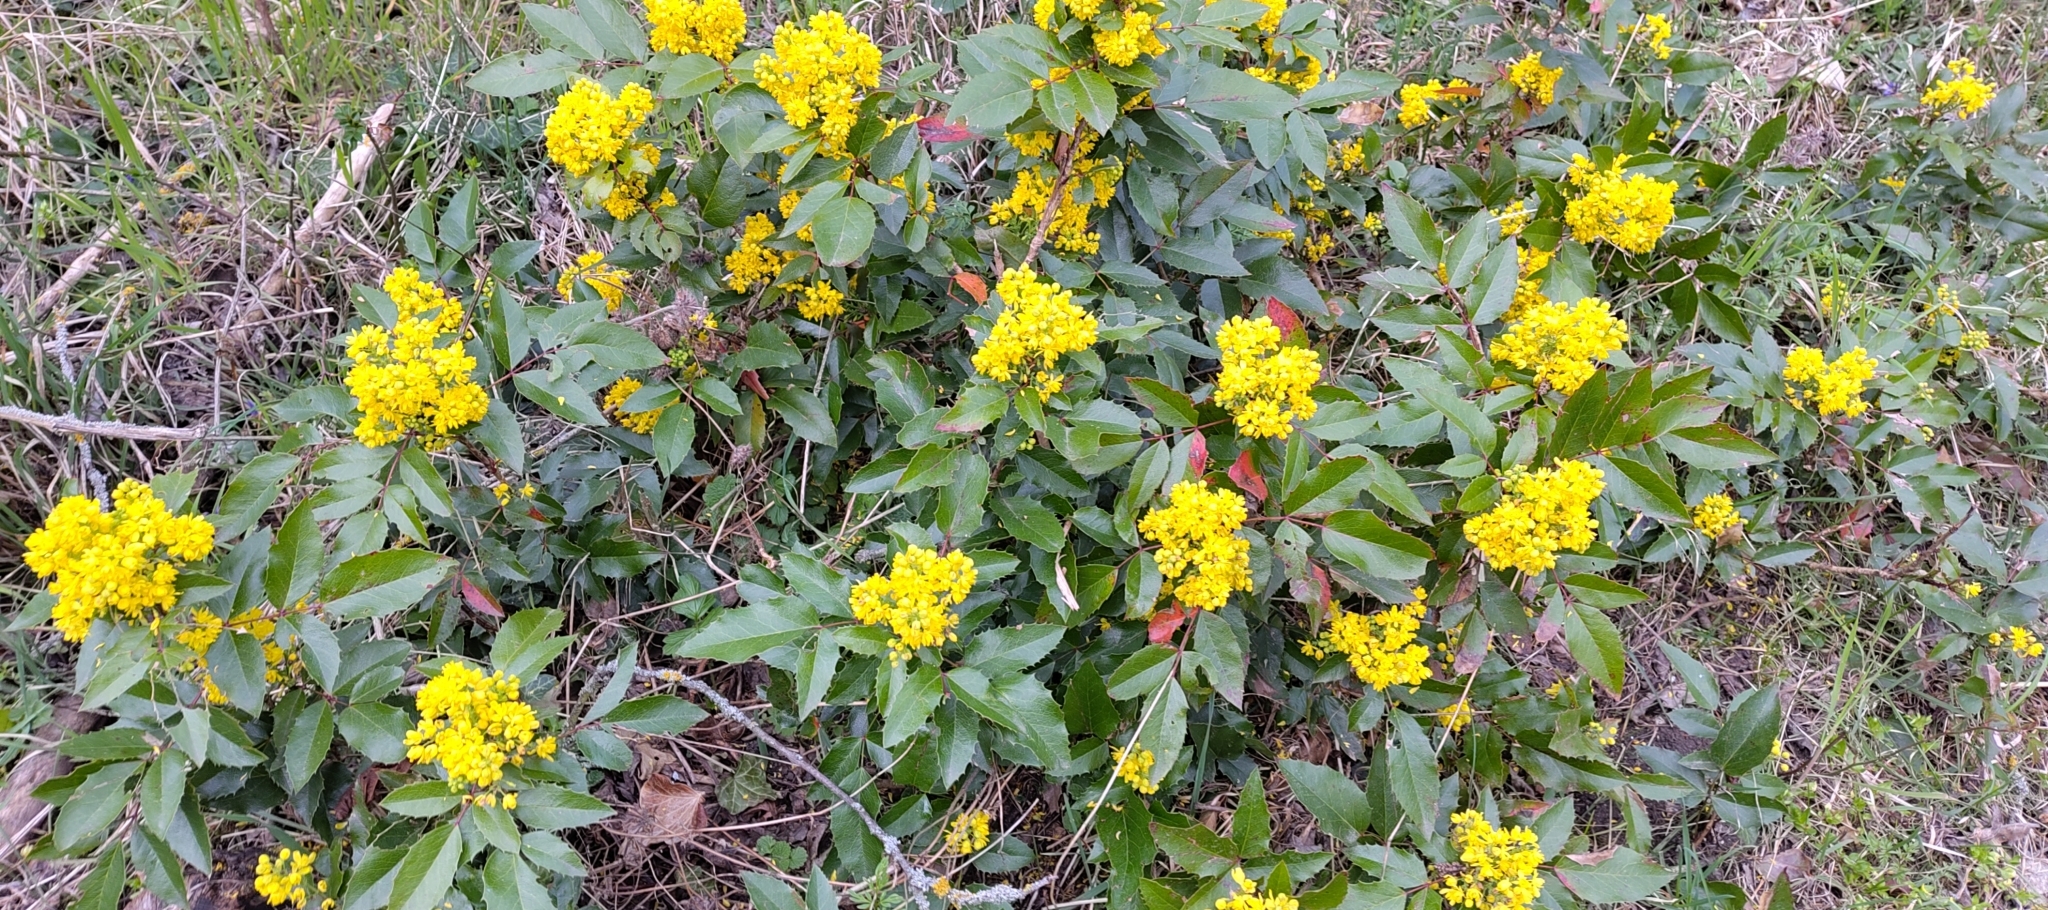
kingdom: Plantae
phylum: Tracheophyta
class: Magnoliopsida
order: Ranunculales
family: Berberidaceae
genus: Mahonia
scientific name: Mahonia aquifolium
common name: Oregon-grape
